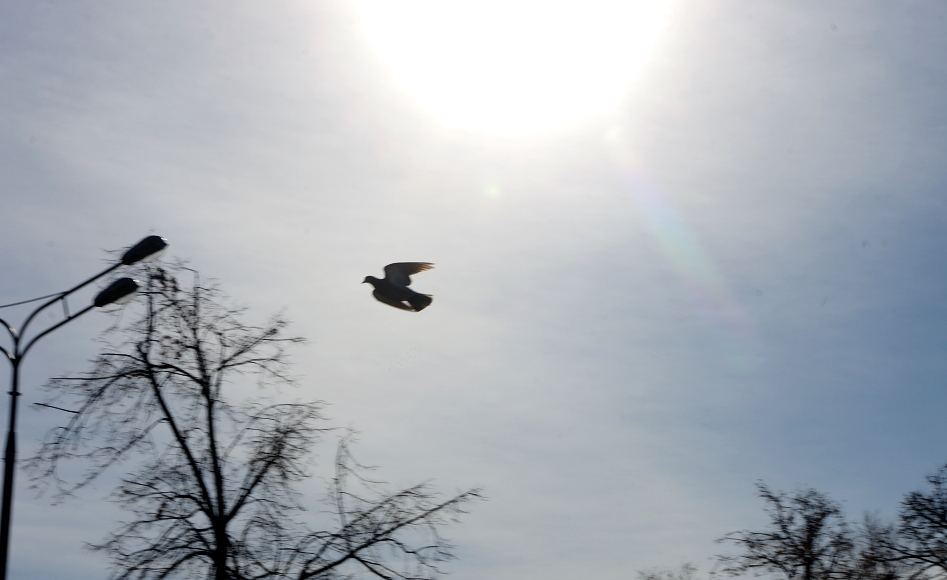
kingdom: Animalia
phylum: Chordata
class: Aves
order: Columbiformes
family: Columbidae
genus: Columba
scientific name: Columba livia
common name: Rock pigeon
